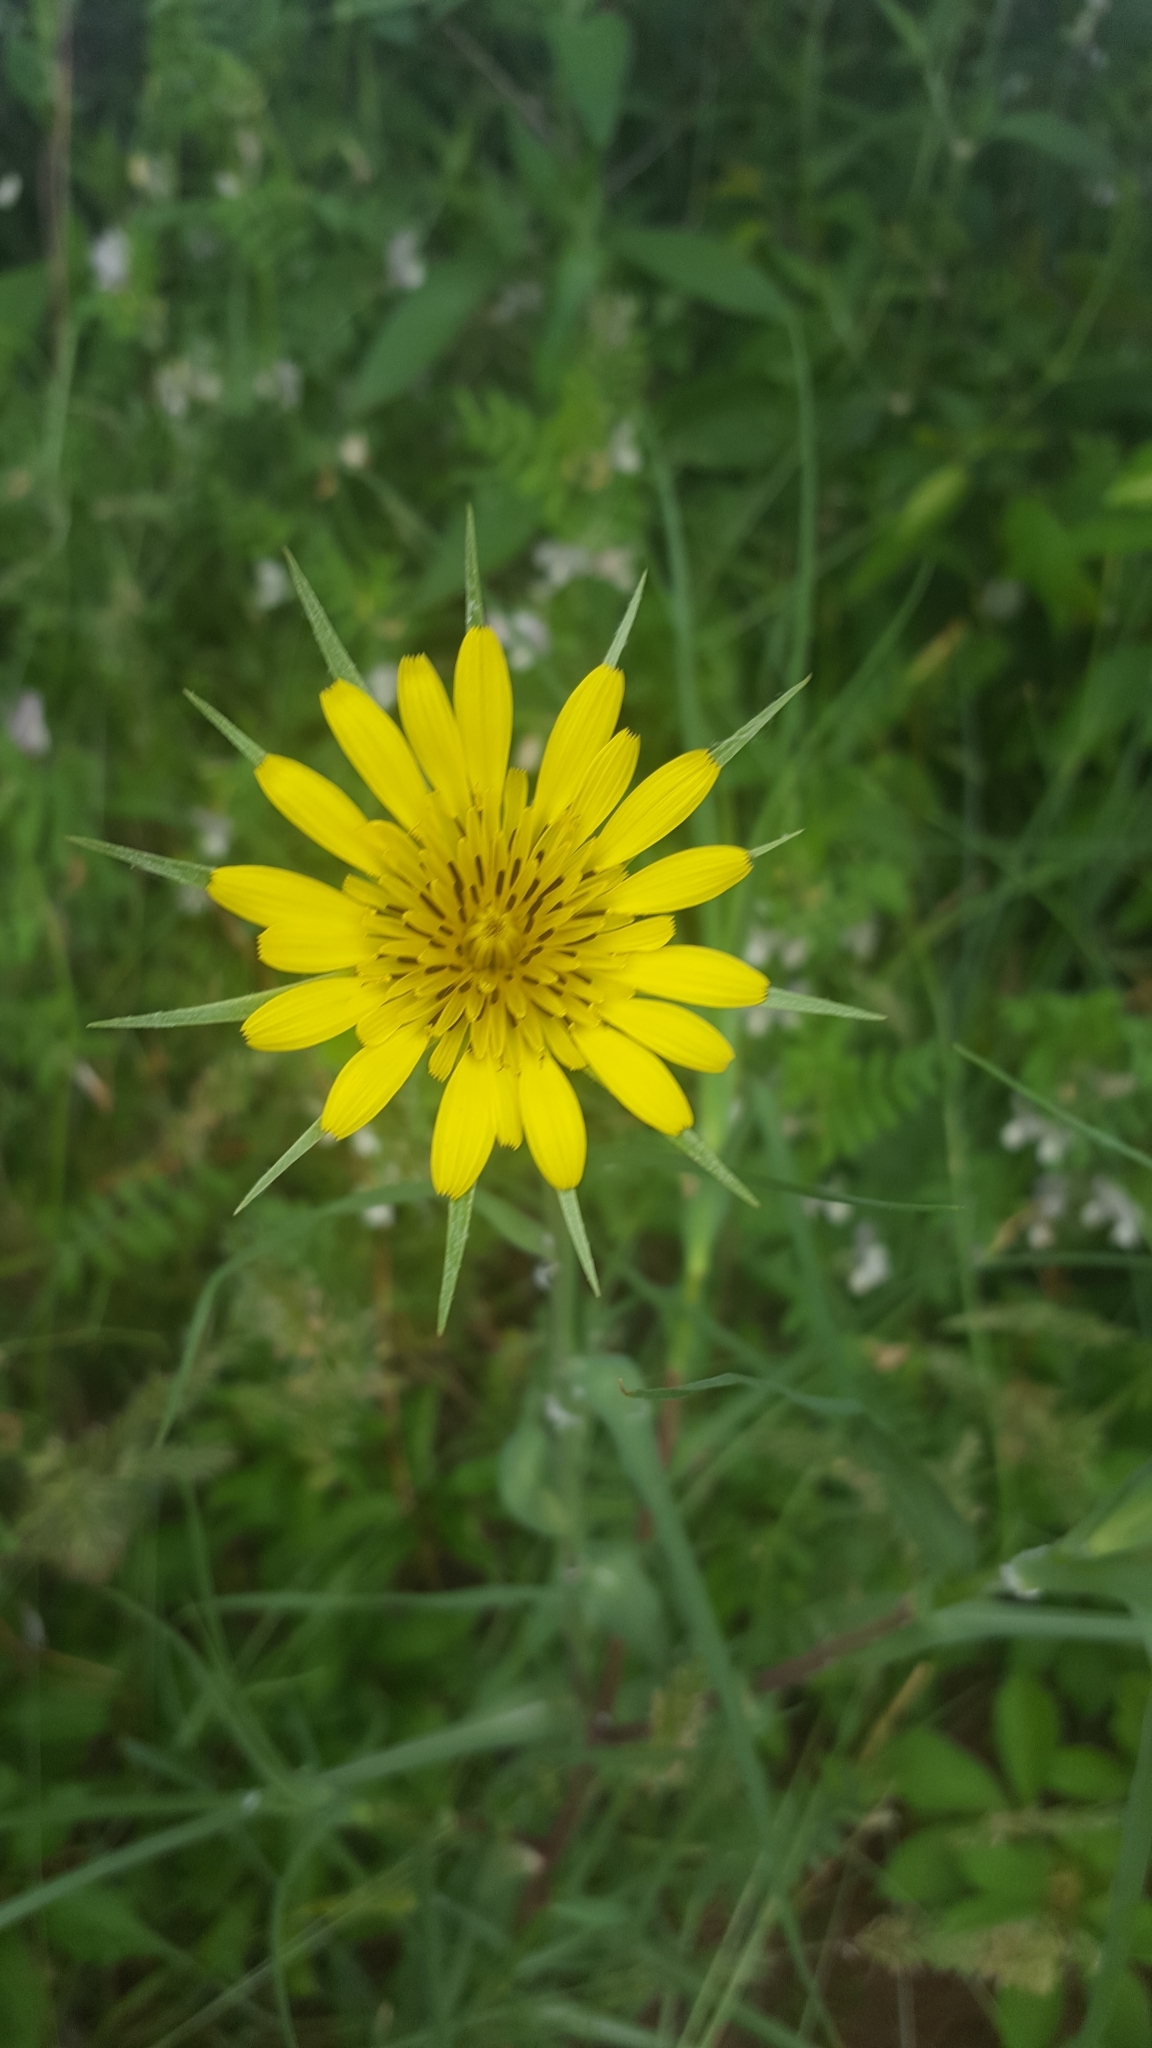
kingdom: Plantae
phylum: Tracheophyta
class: Magnoliopsida
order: Asterales
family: Asteraceae
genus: Tragopogon
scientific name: Tragopogon dubius
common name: Yellow salsify
